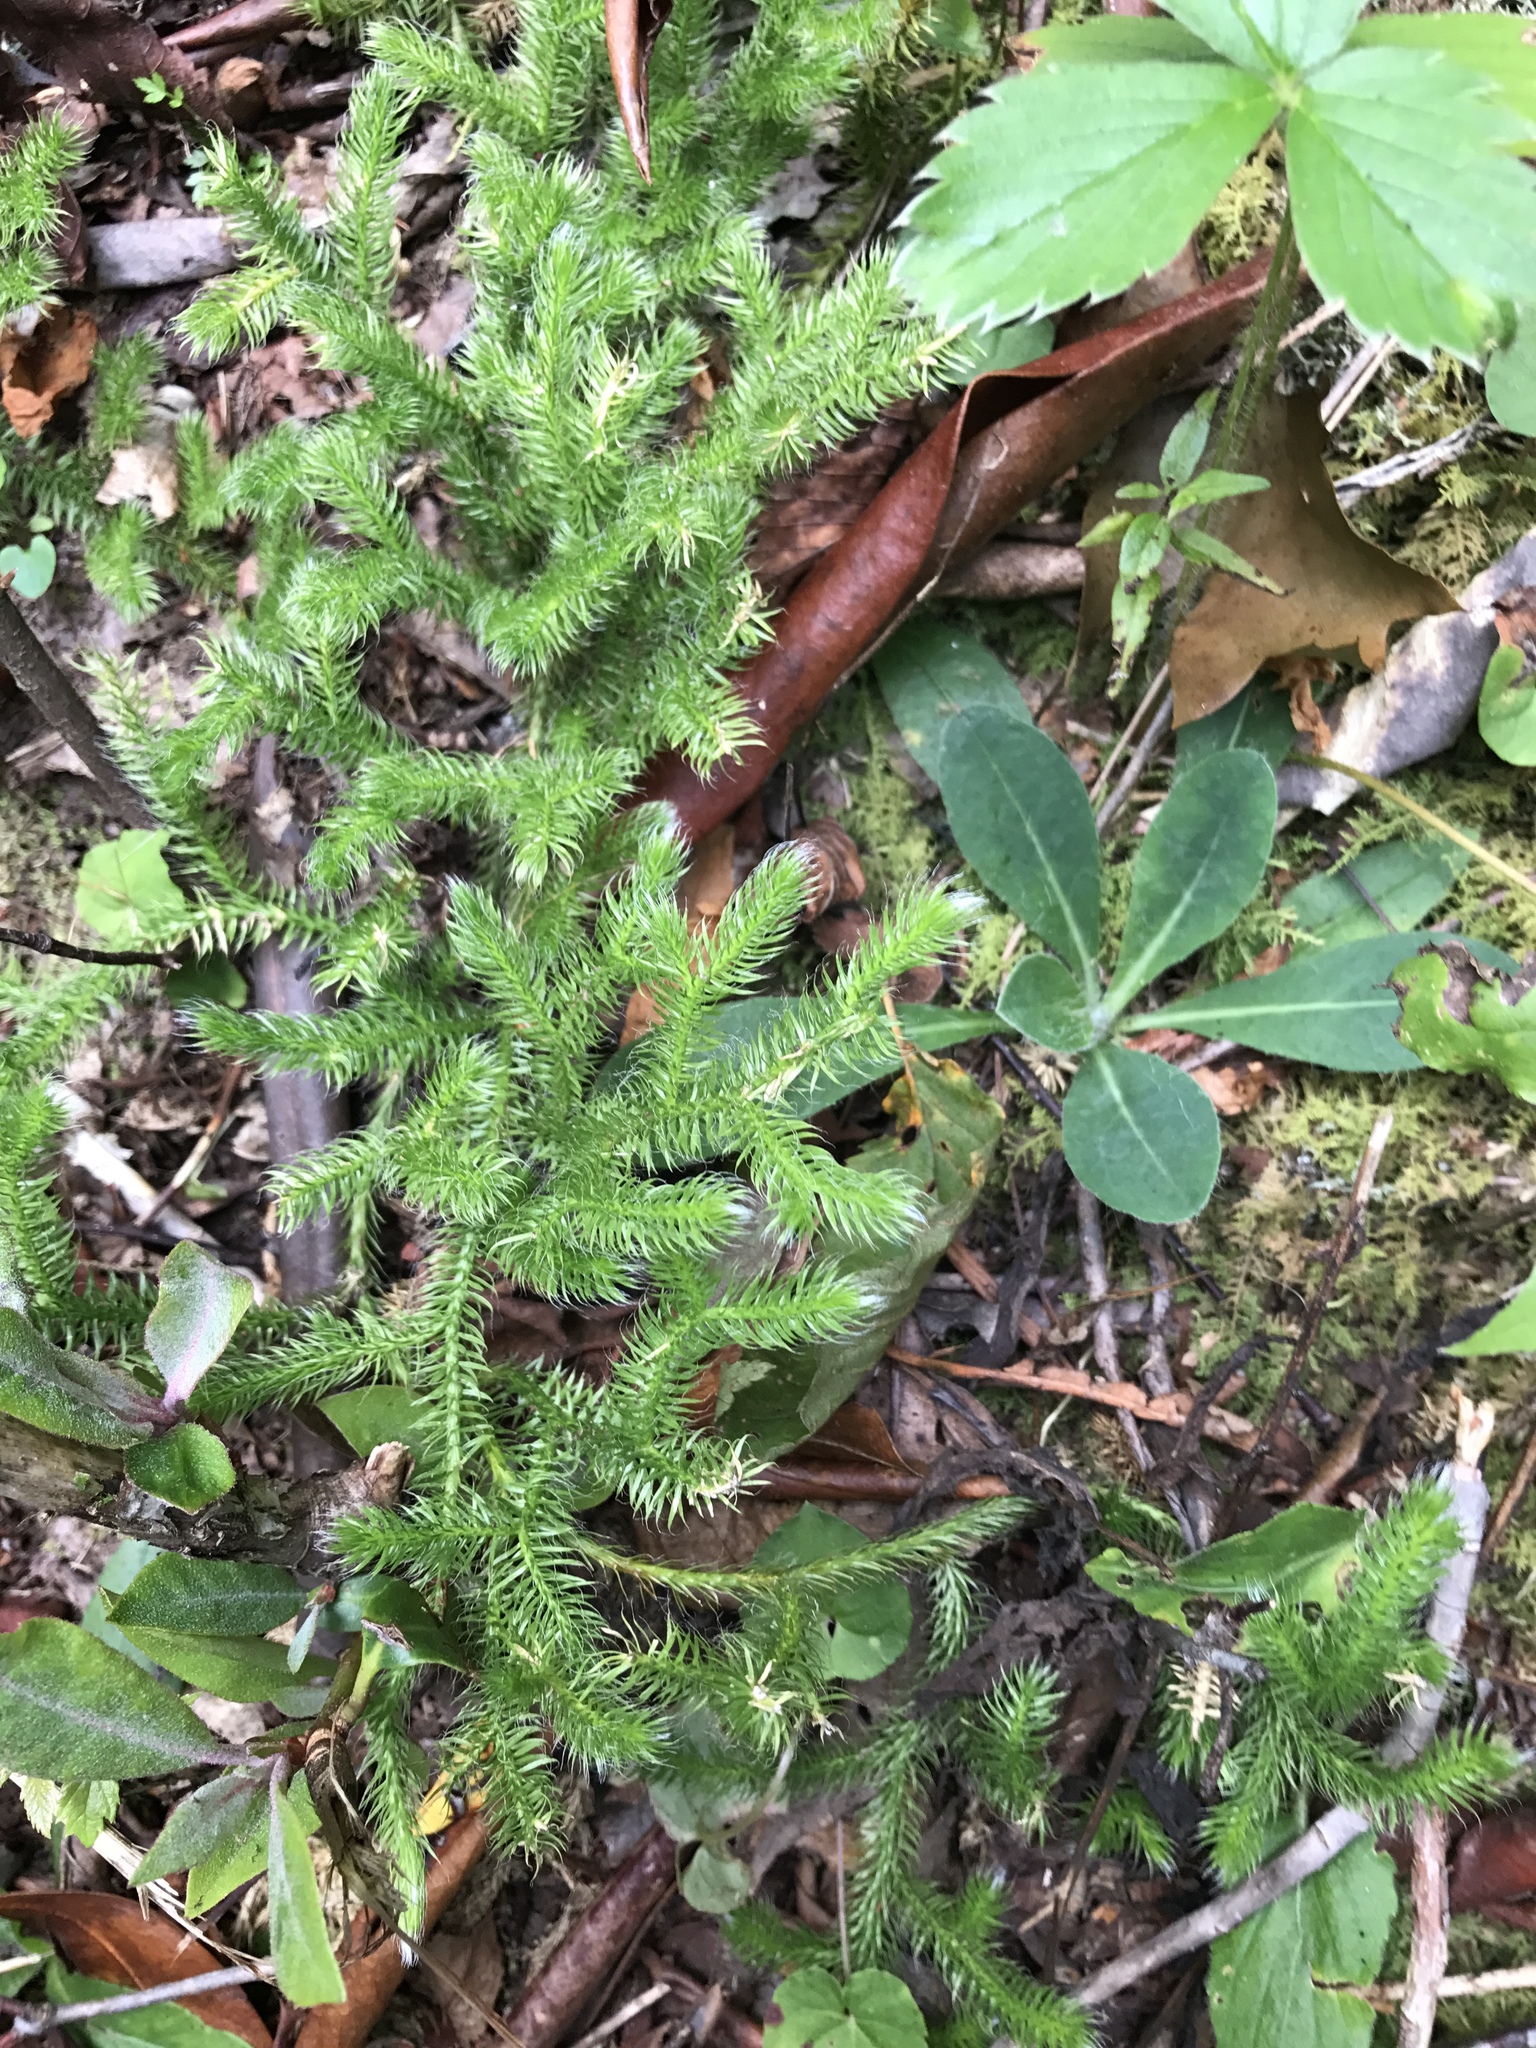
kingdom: Plantae
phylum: Tracheophyta
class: Lycopodiopsida
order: Lycopodiales
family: Lycopodiaceae
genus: Lycopodium
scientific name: Lycopodium clavatum
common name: Stag's-horn clubmoss
